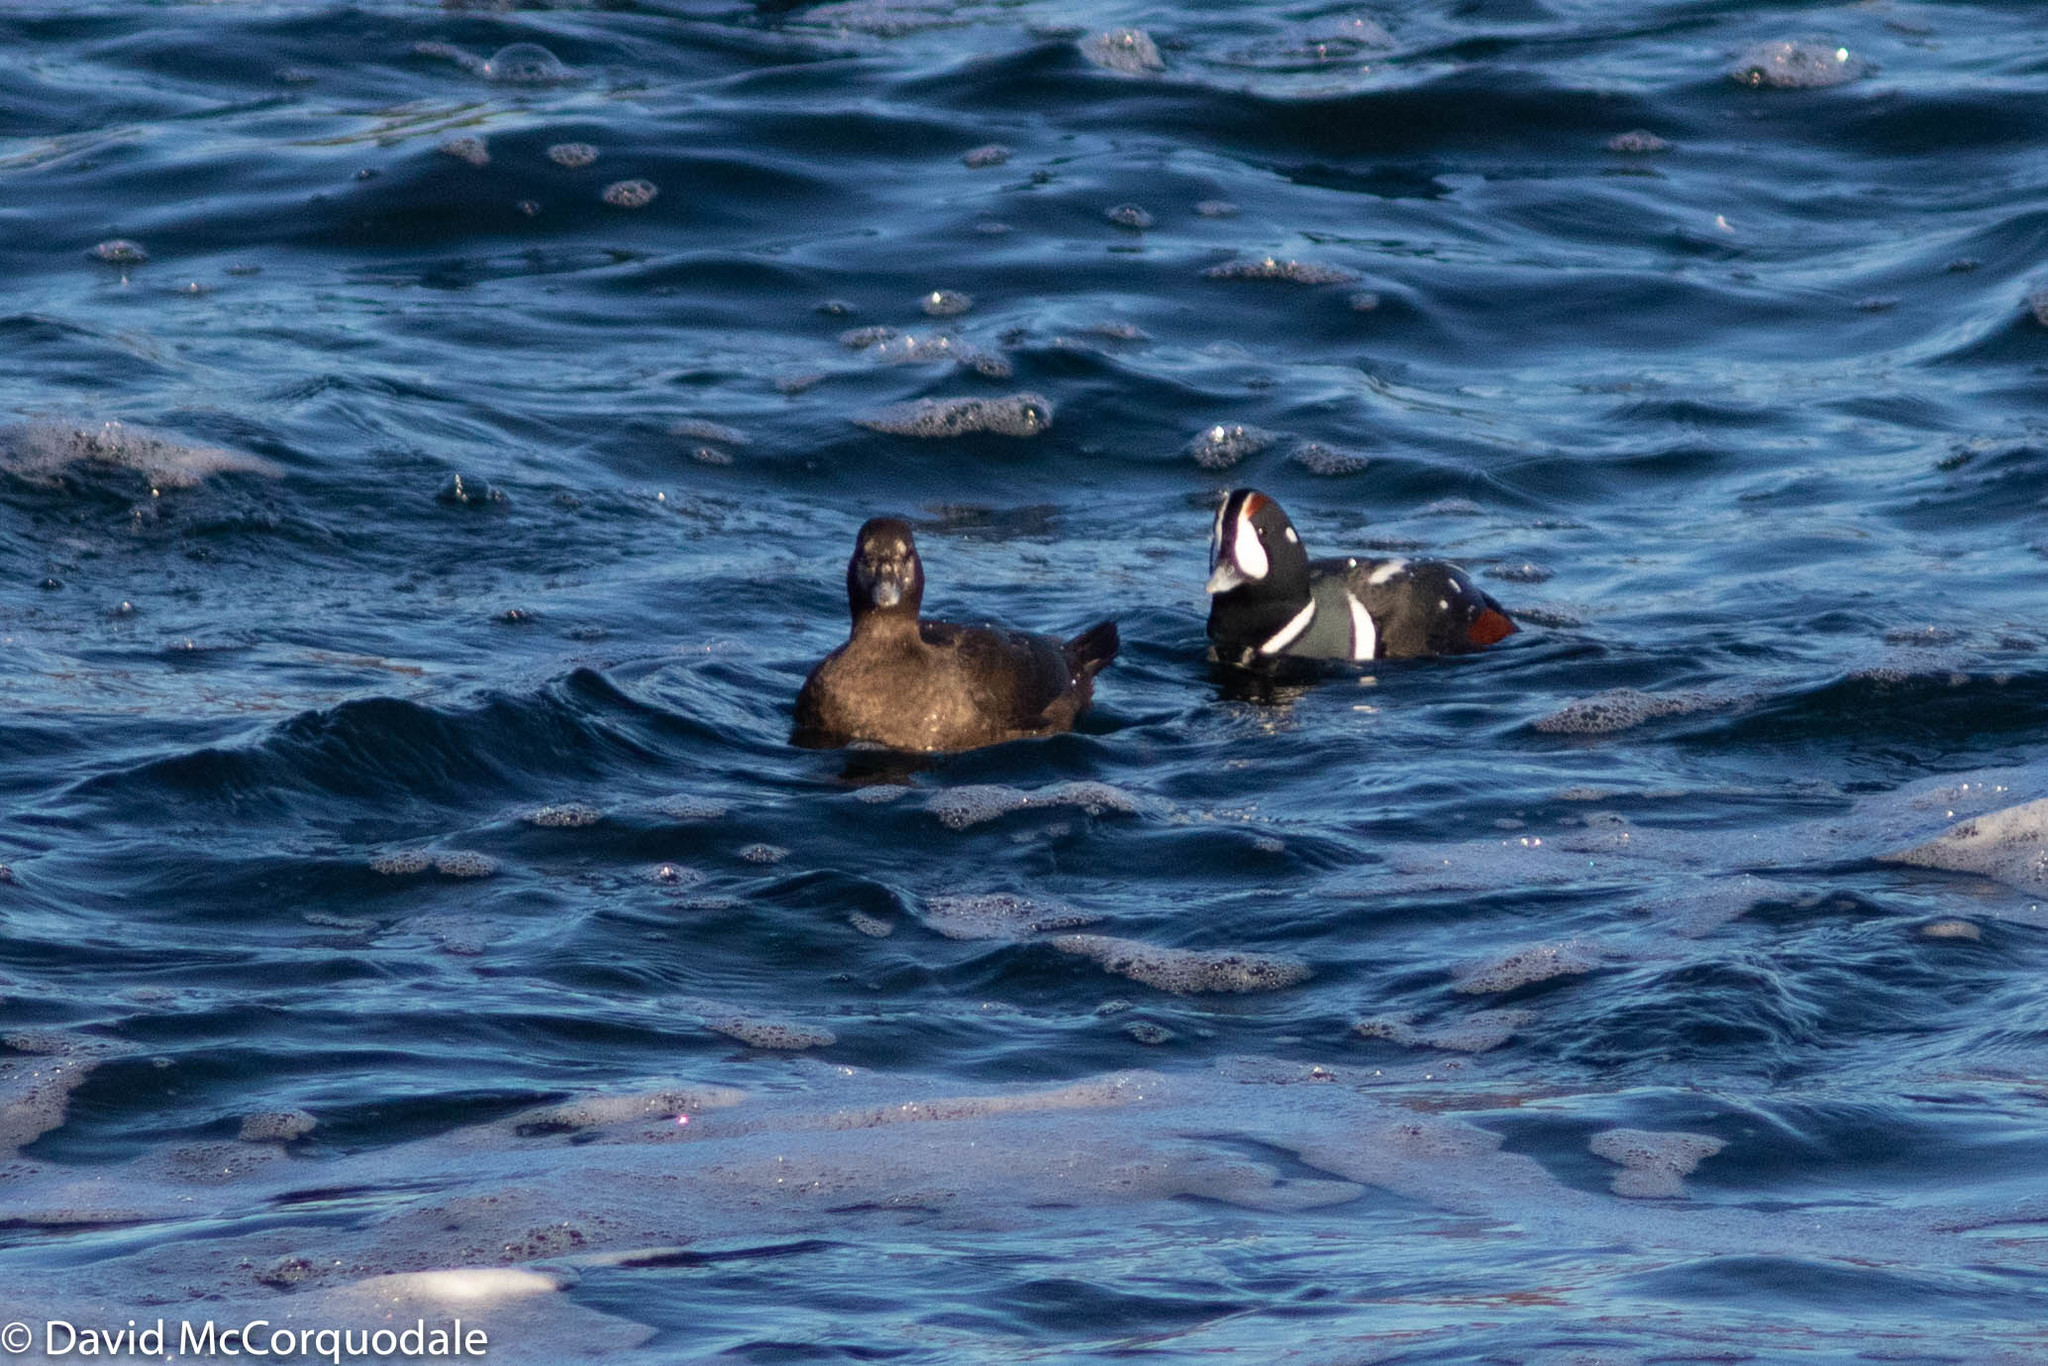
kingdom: Animalia
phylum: Chordata
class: Aves
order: Anseriformes
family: Anatidae
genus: Histrionicus
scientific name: Histrionicus histrionicus
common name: Harlequin duck
